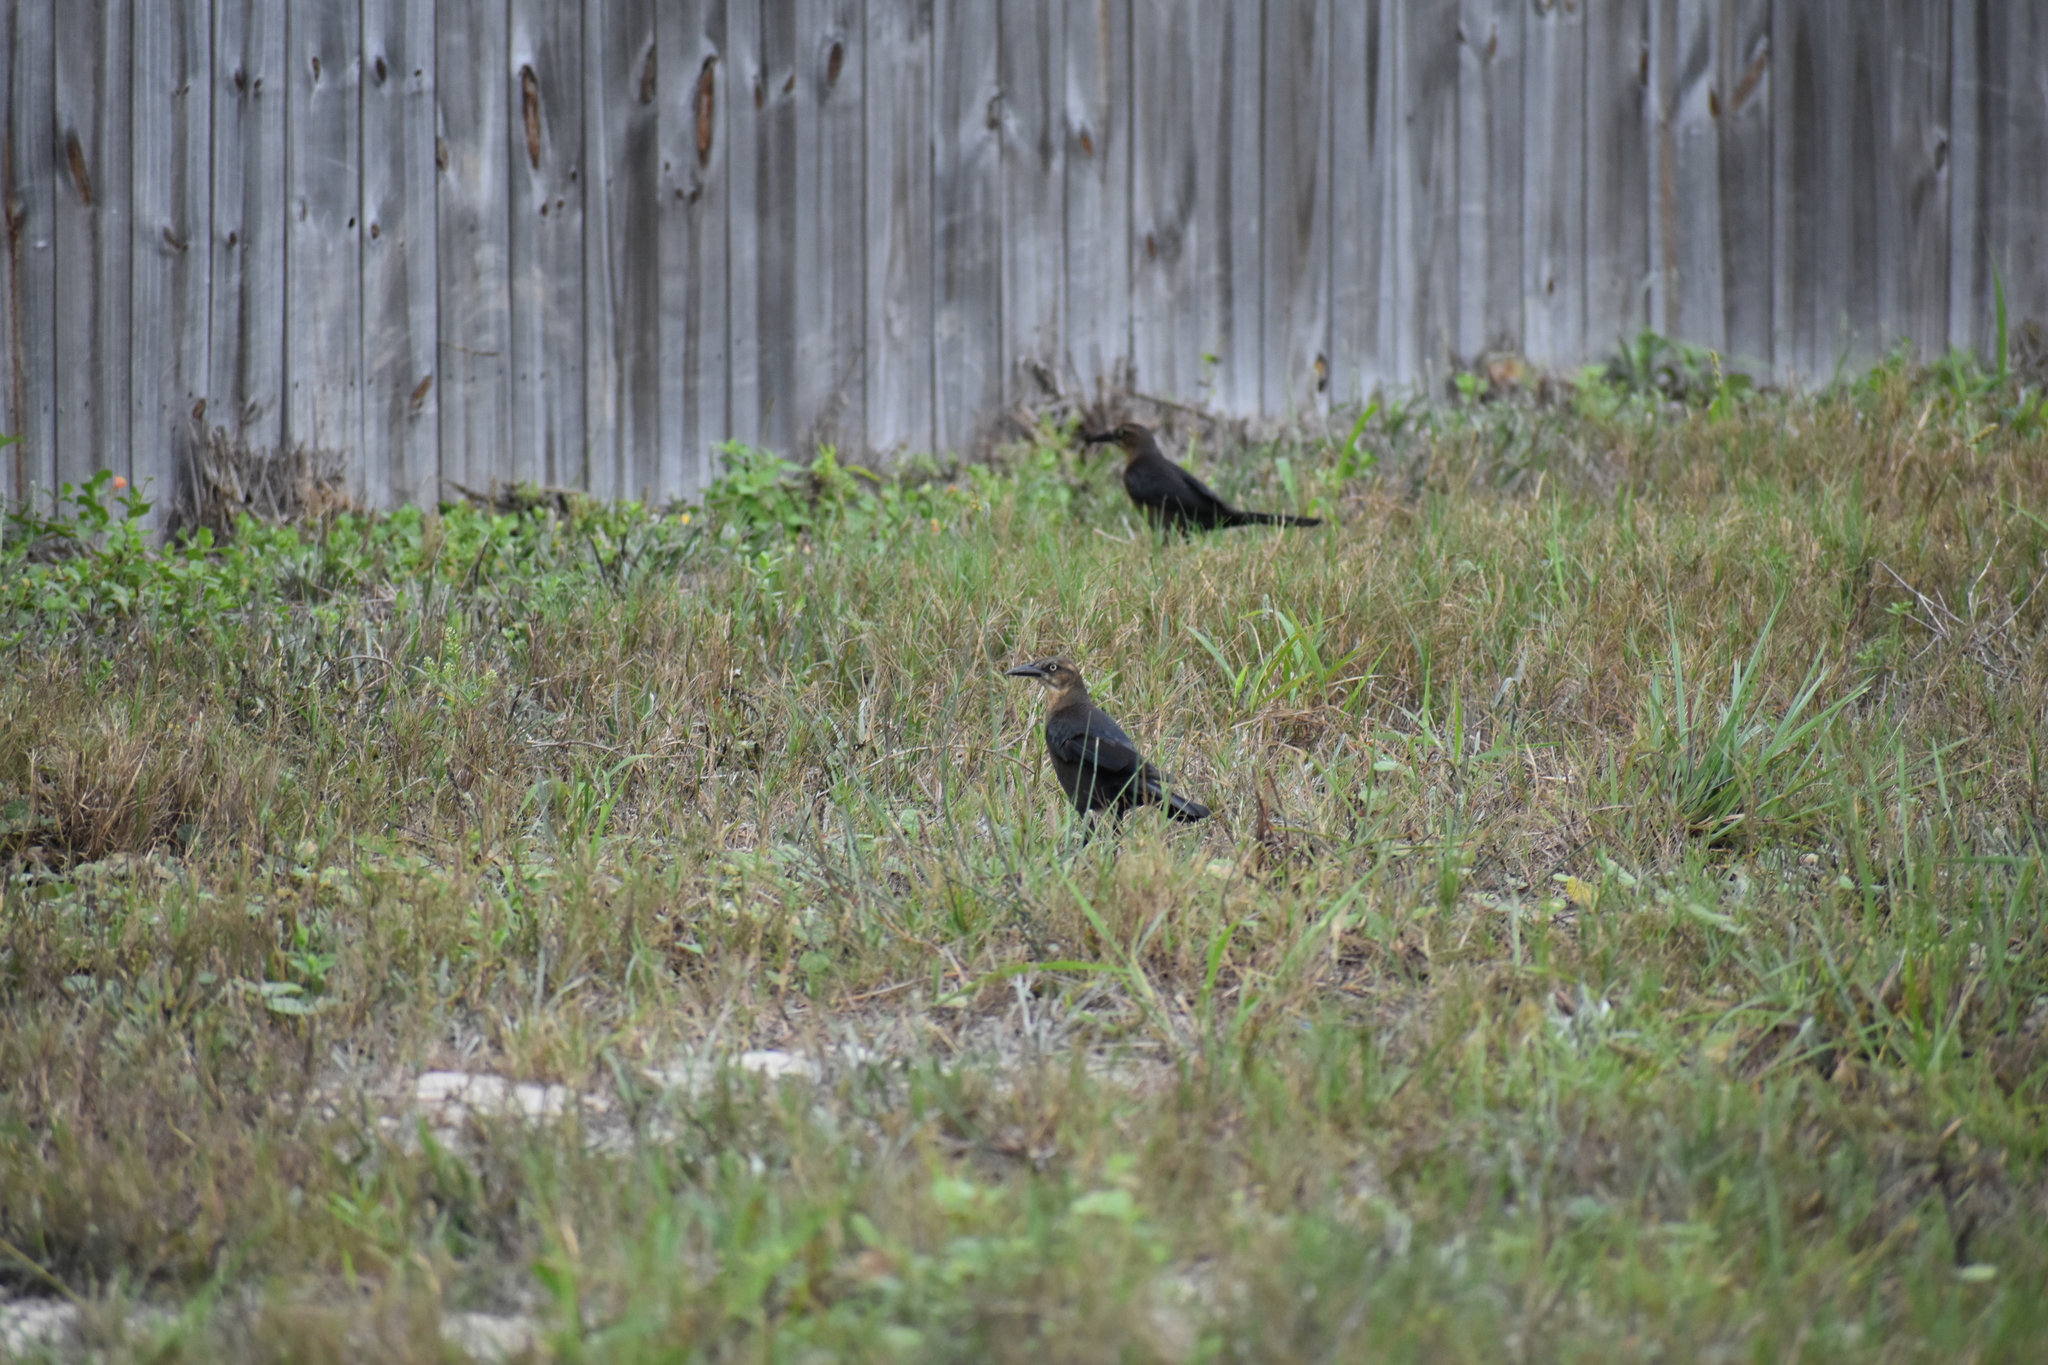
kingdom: Animalia
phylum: Chordata
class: Aves
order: Passeriformes
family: Icteridae
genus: Quiscalus
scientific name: Quiscalus mexicanus
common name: Great-tailed grackle
